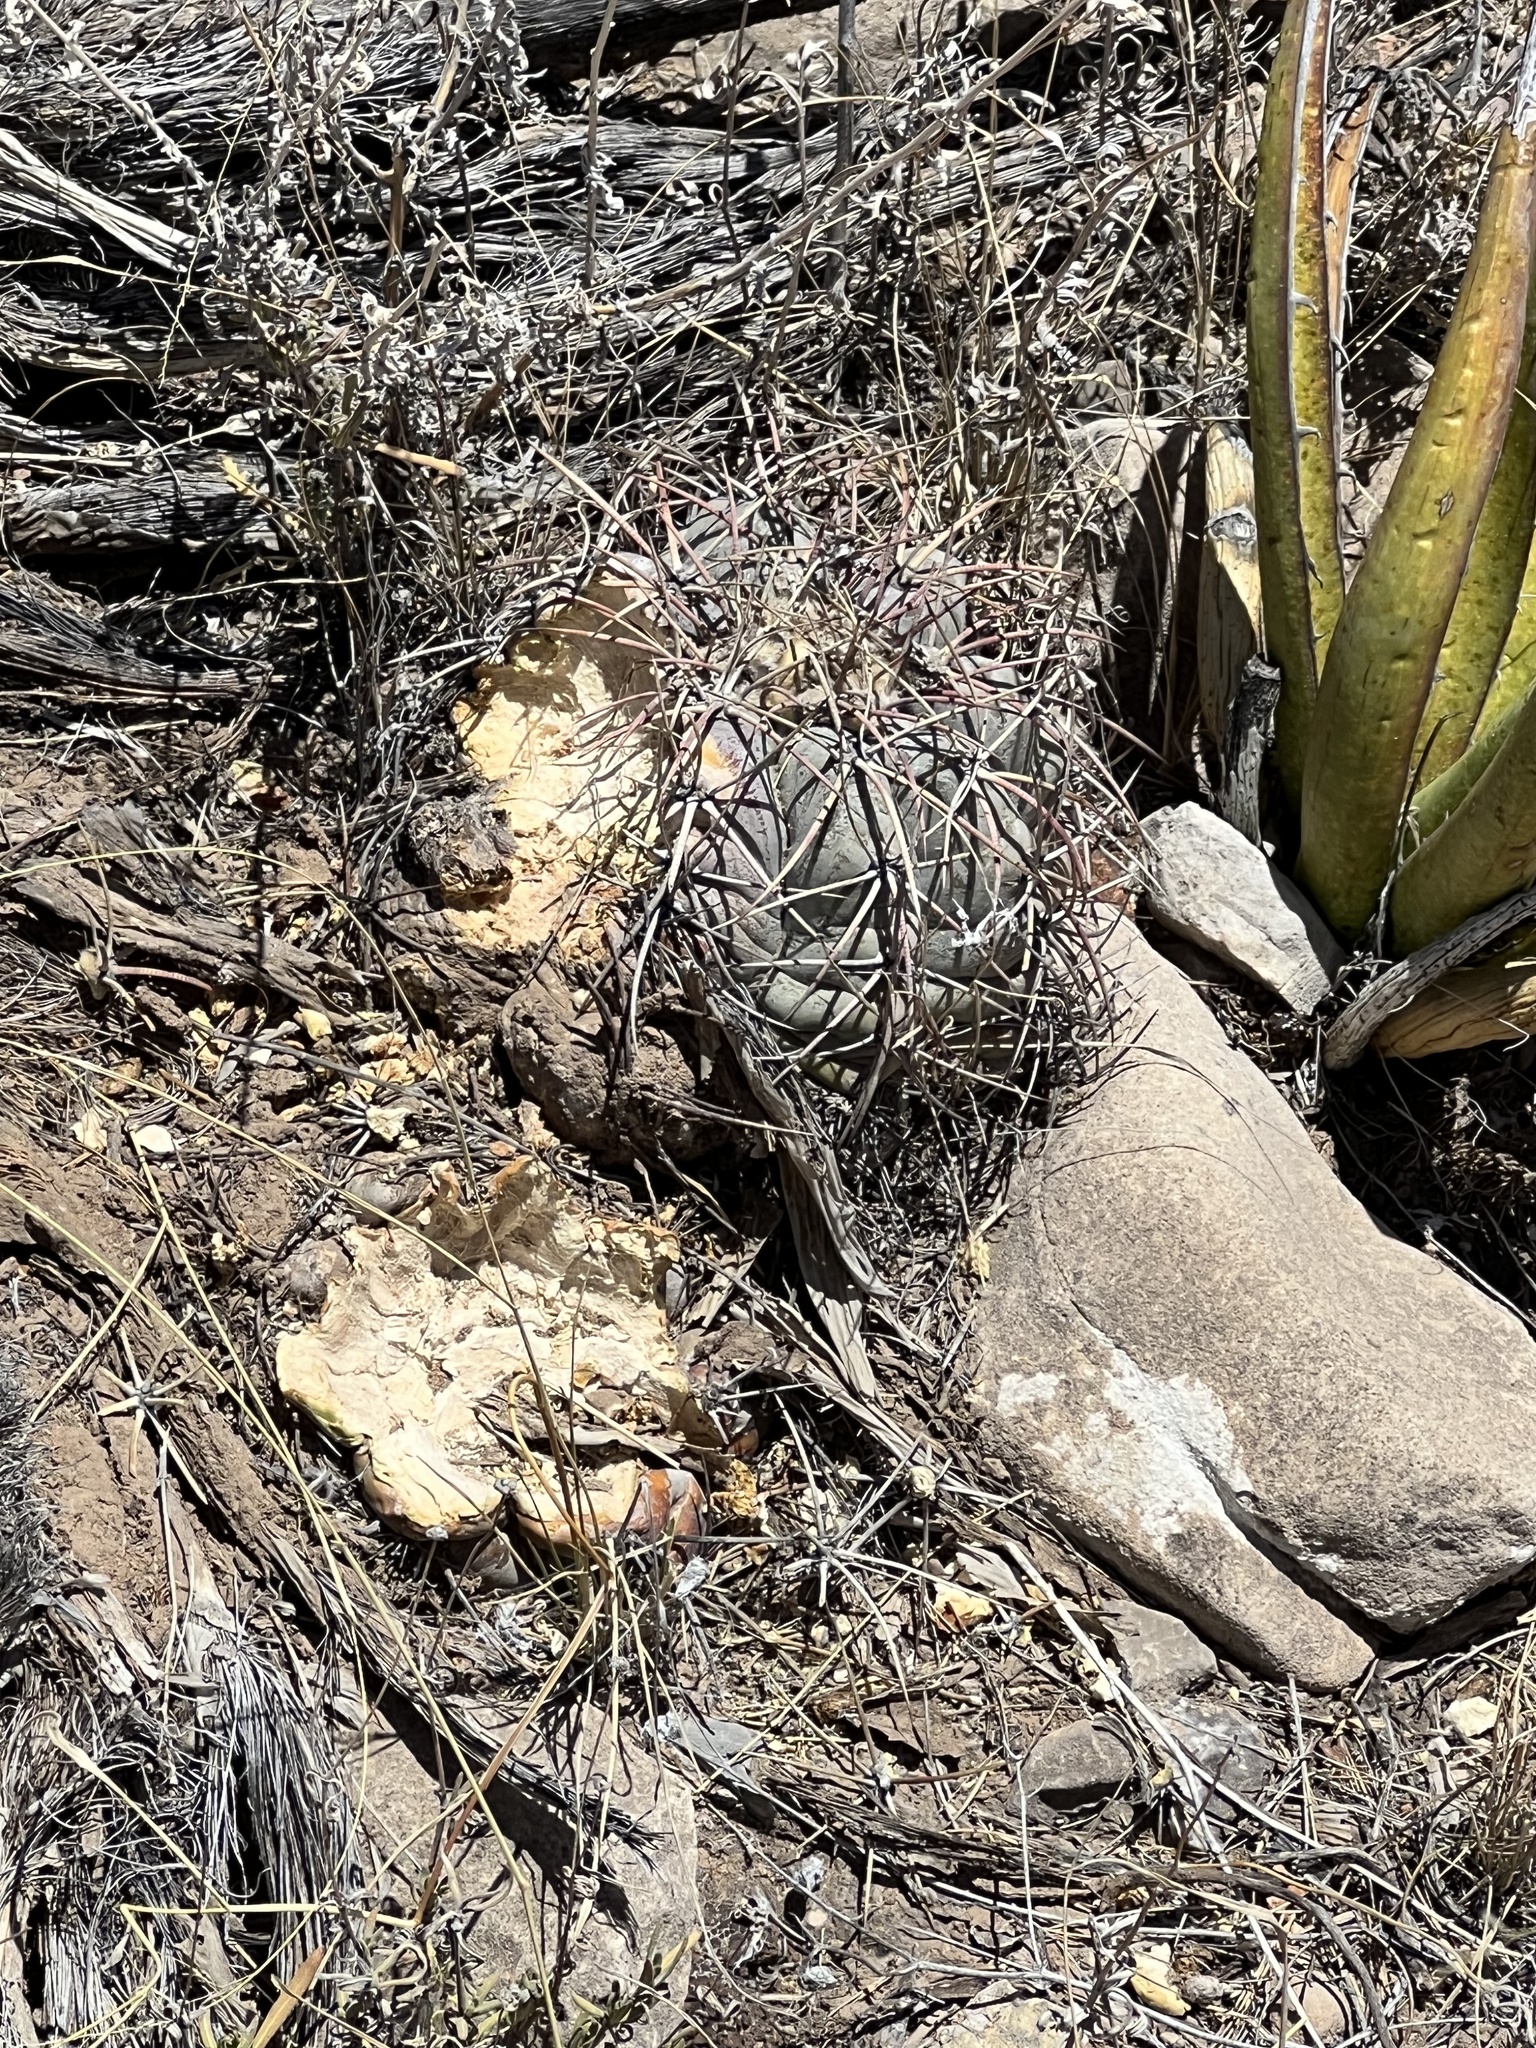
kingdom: Plantae
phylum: Tracheophyta
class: Magnoliopsida
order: Caryophyllales
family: Cactaceae
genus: Echinocactus
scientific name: Echinocactus horizonthalonius
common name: Devilshead
